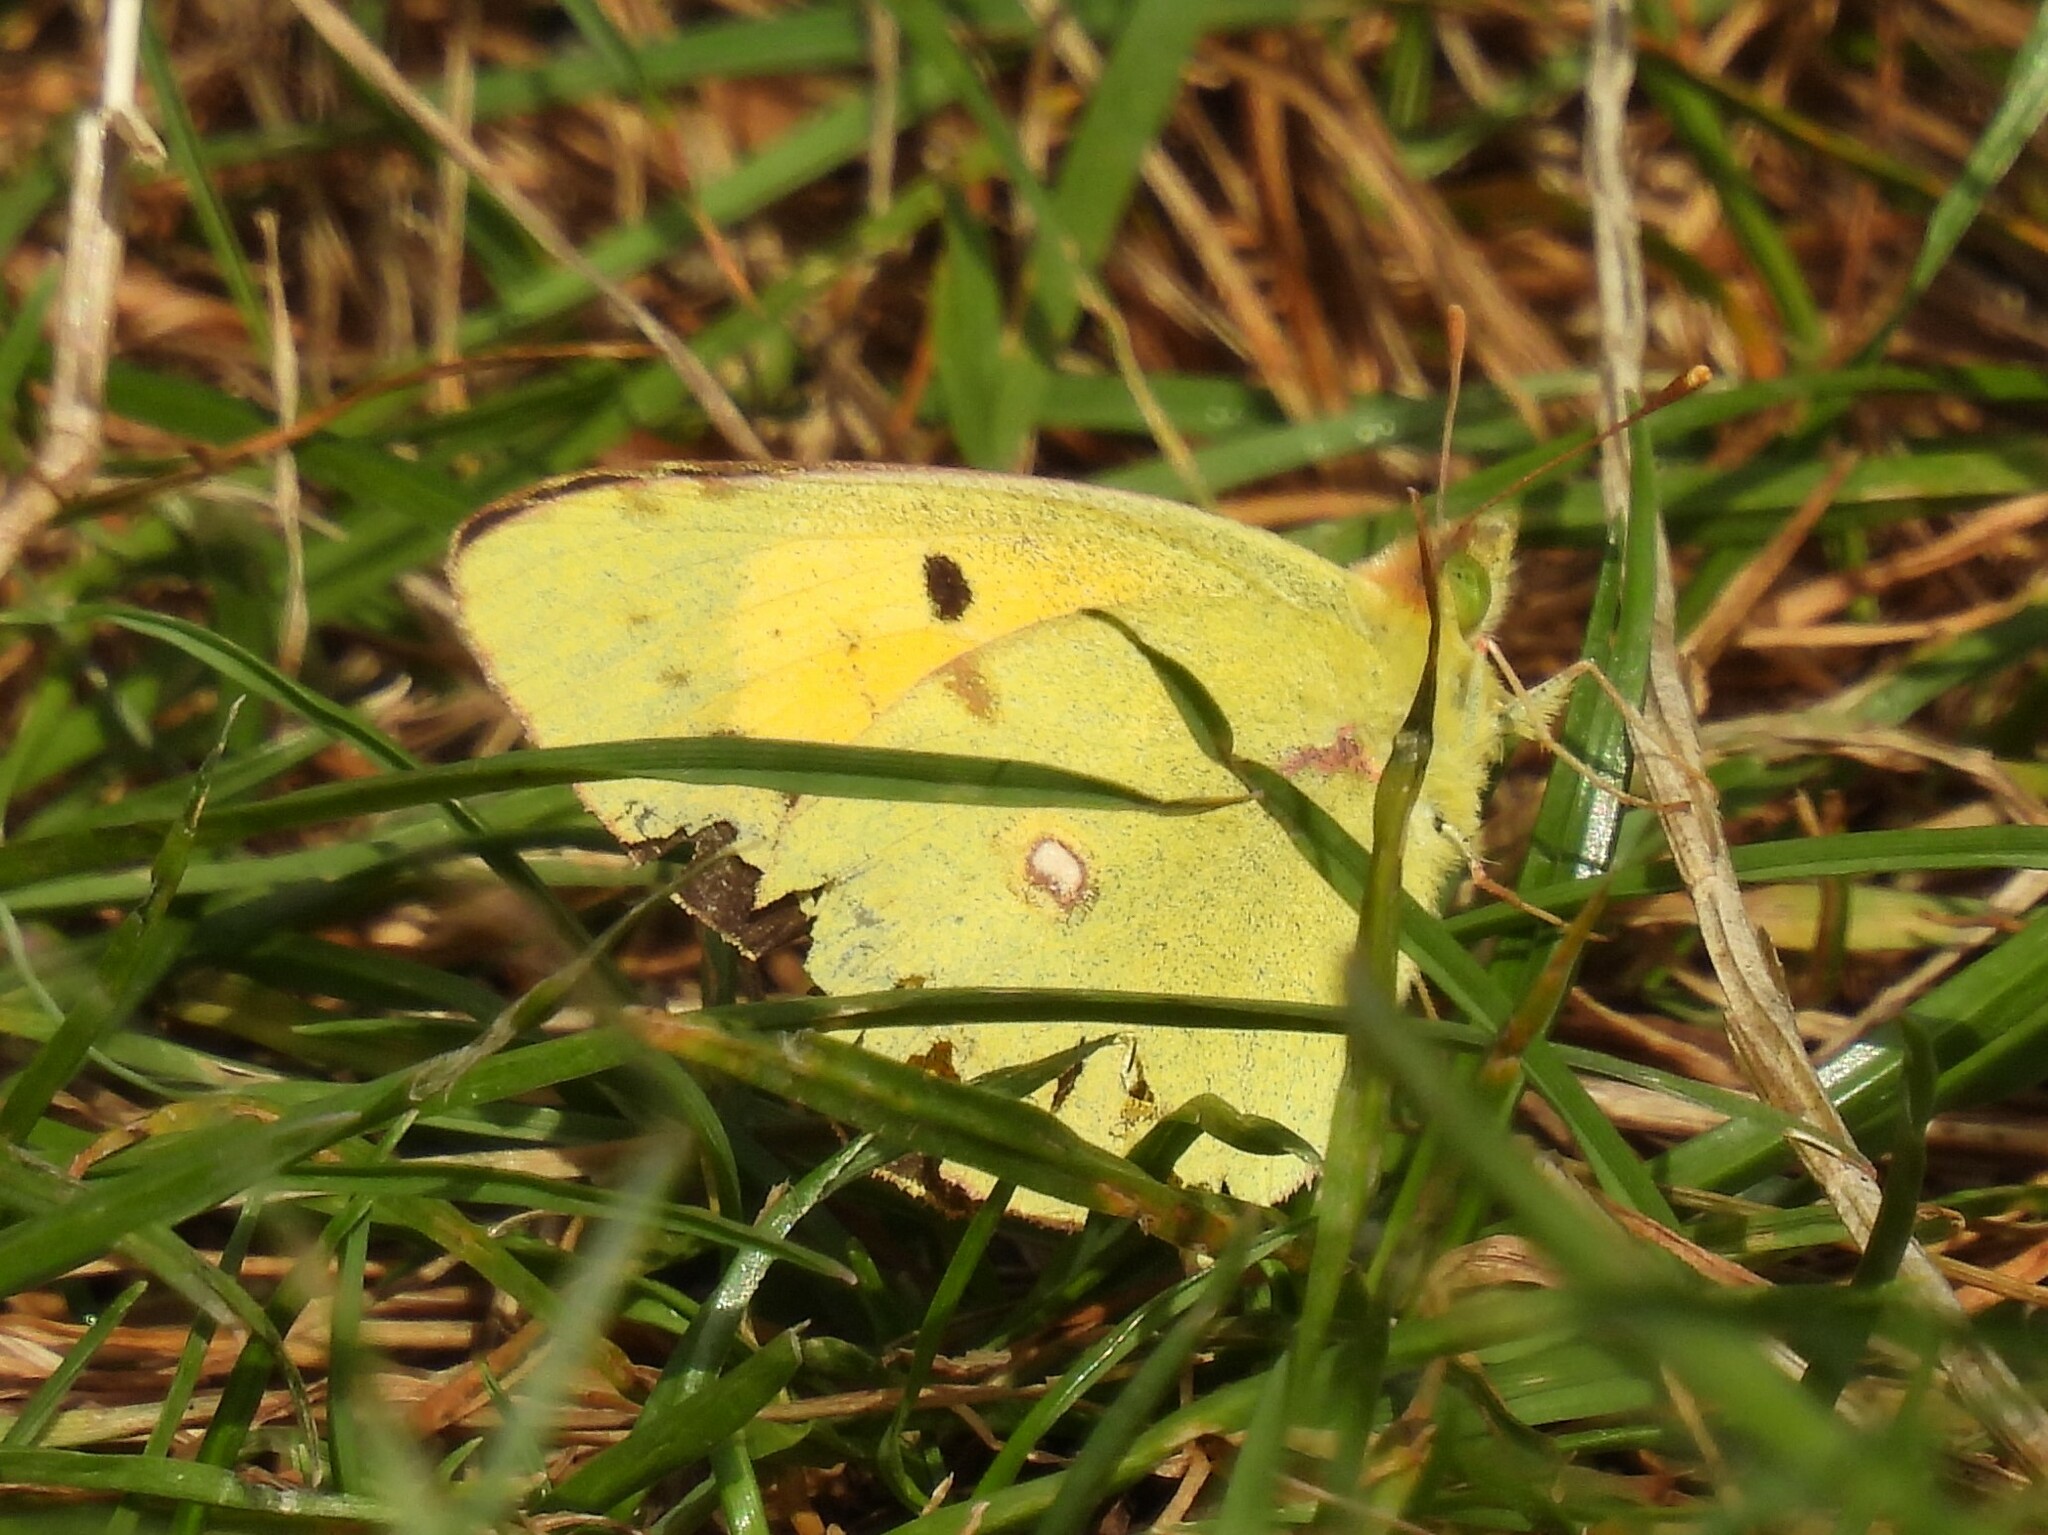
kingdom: Animalia
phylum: Arthropoda
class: Insecta
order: Lepidoptera
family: Pieridae
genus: Colias
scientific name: Colias croceus
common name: Clouded yellow
